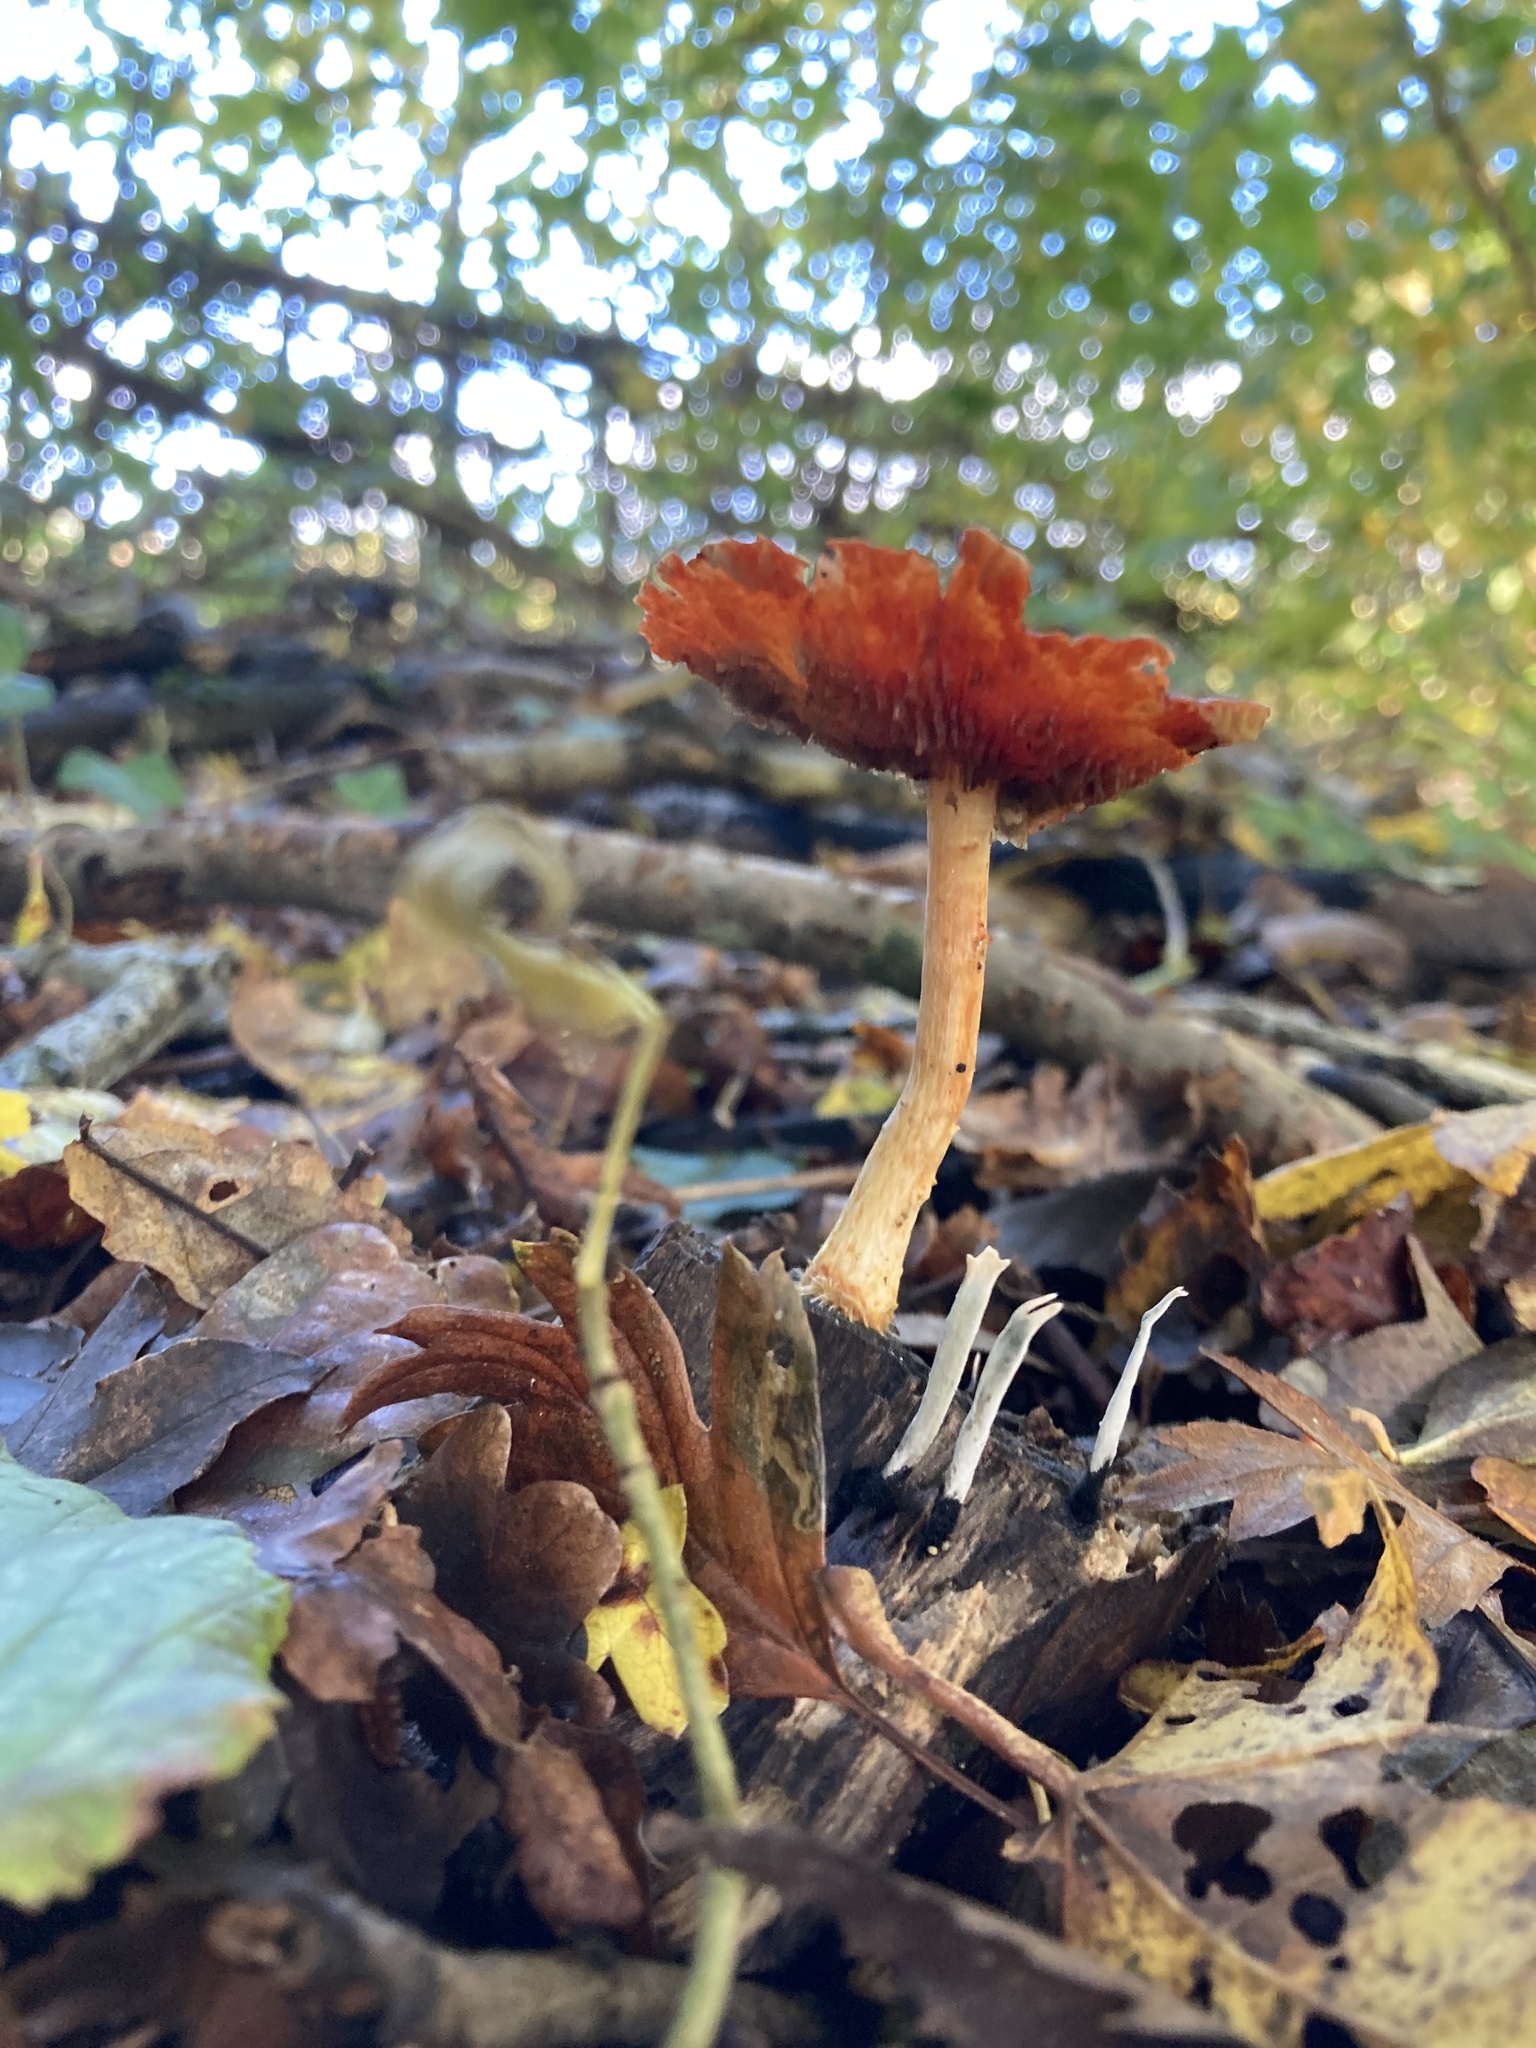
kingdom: Fungi
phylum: Basidiomycota
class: Agaricomycetes
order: Agaricales
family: Strophariaceae
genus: Leratiomyces
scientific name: Leratiomyces ceres
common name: Redlead roundhead
